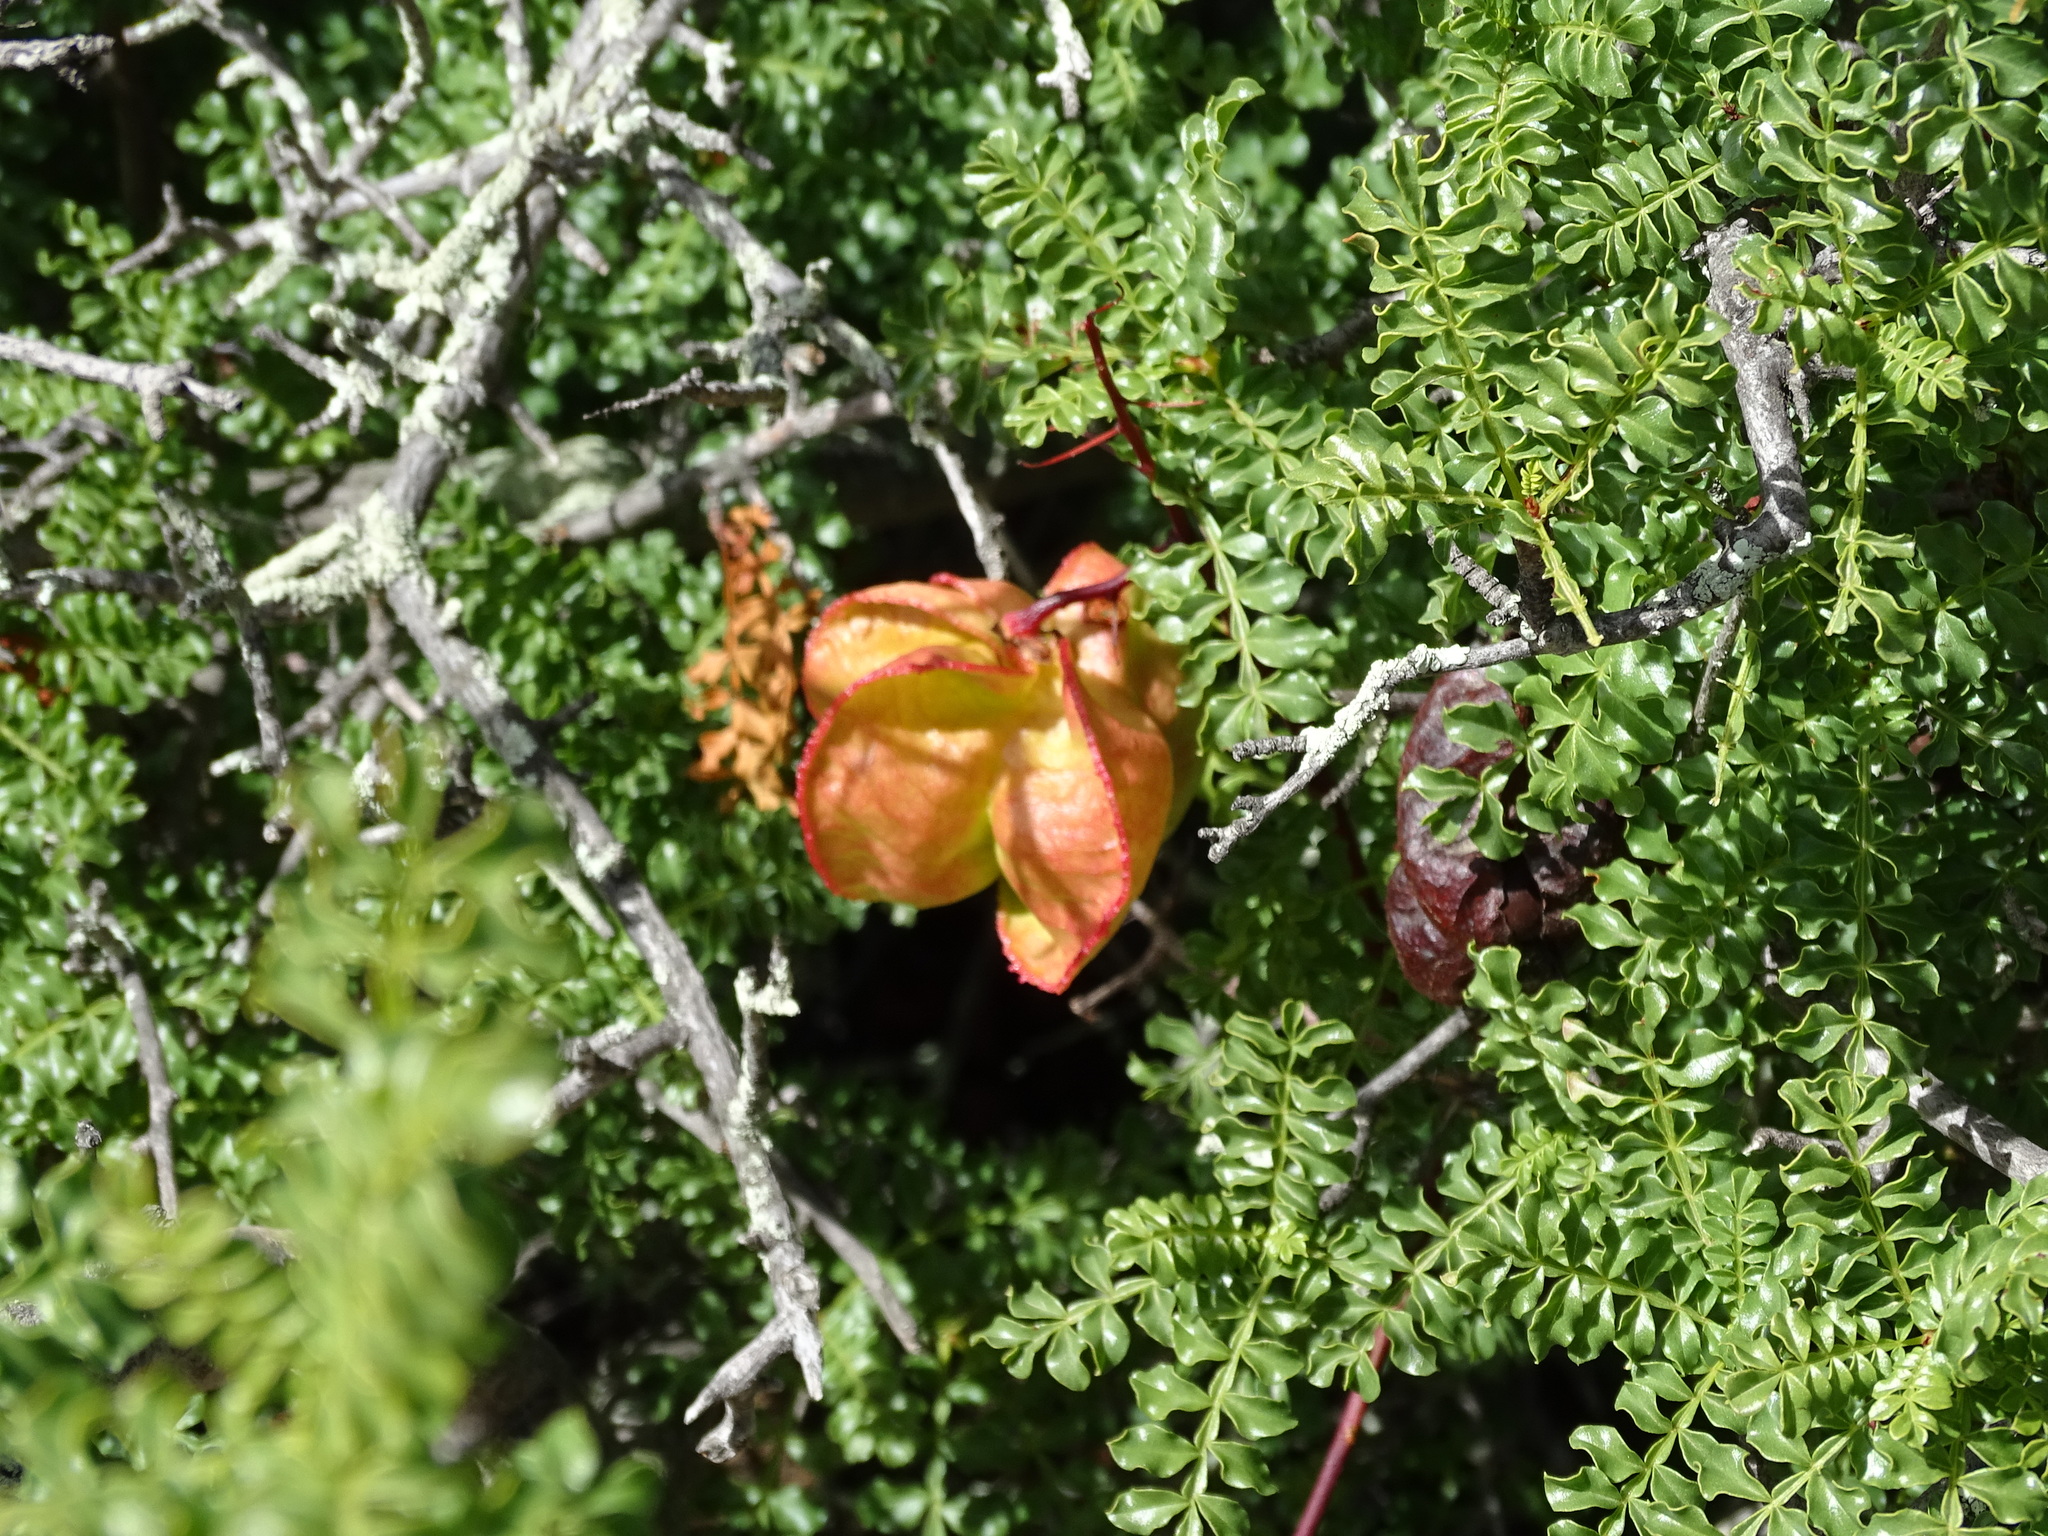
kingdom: Plantae
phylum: Tracheophyta
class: Magnoliopsida
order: Sapindales
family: Sapindaceae
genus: Erythrophysa
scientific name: Erythrophysa alata
